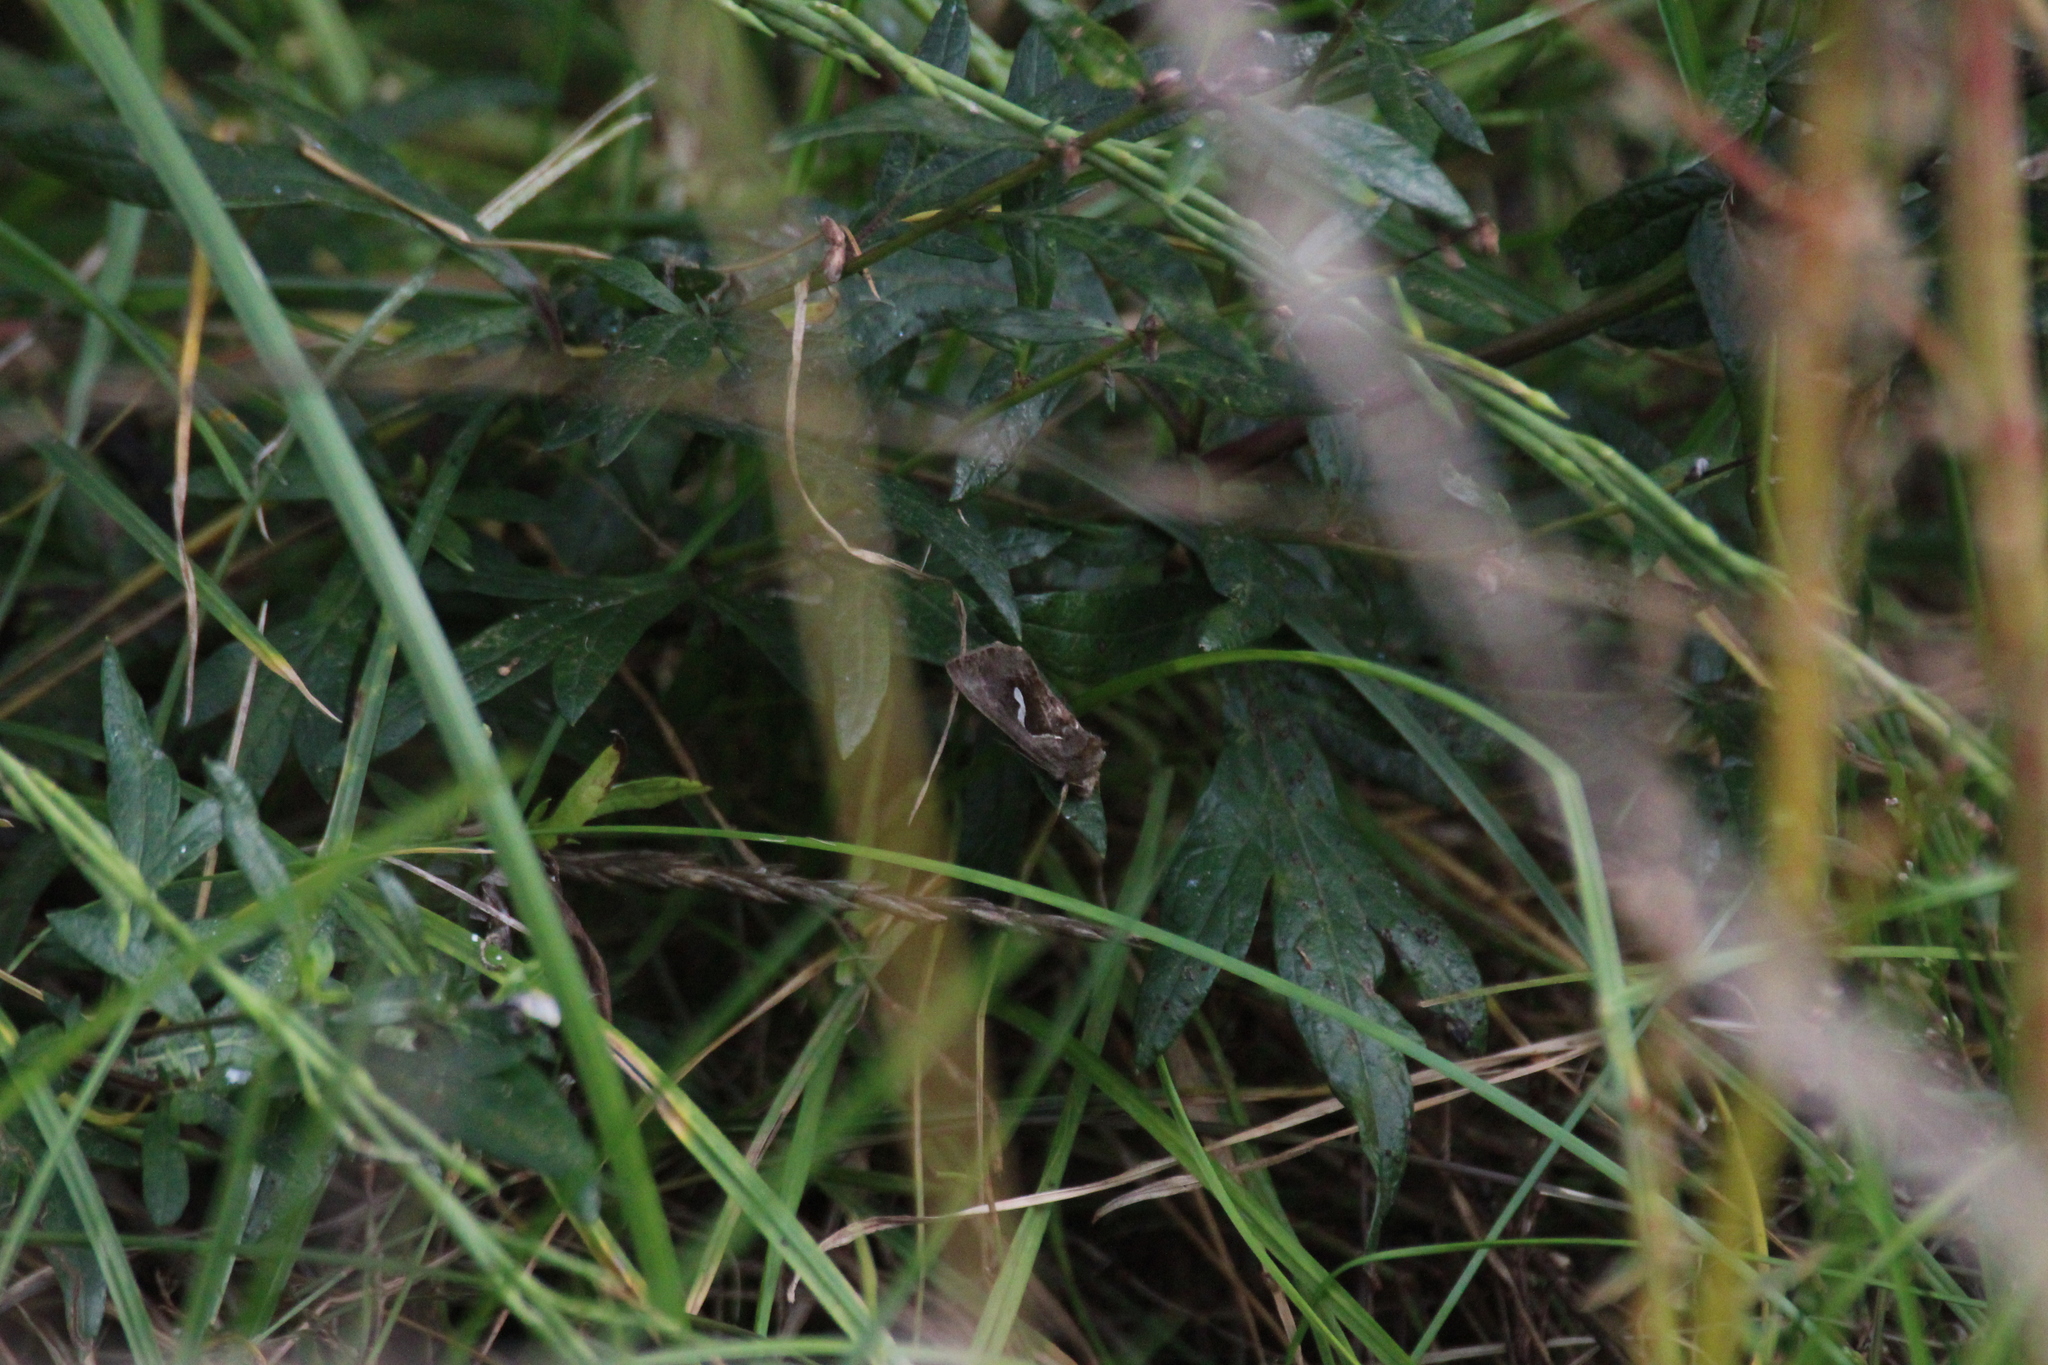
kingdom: Animalia
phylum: Arthropoda
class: Insecta
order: Lepidoptera
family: Noctuidae
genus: Macdunnoughia
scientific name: Macdunnoughia confusa
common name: Dewick's plusia
